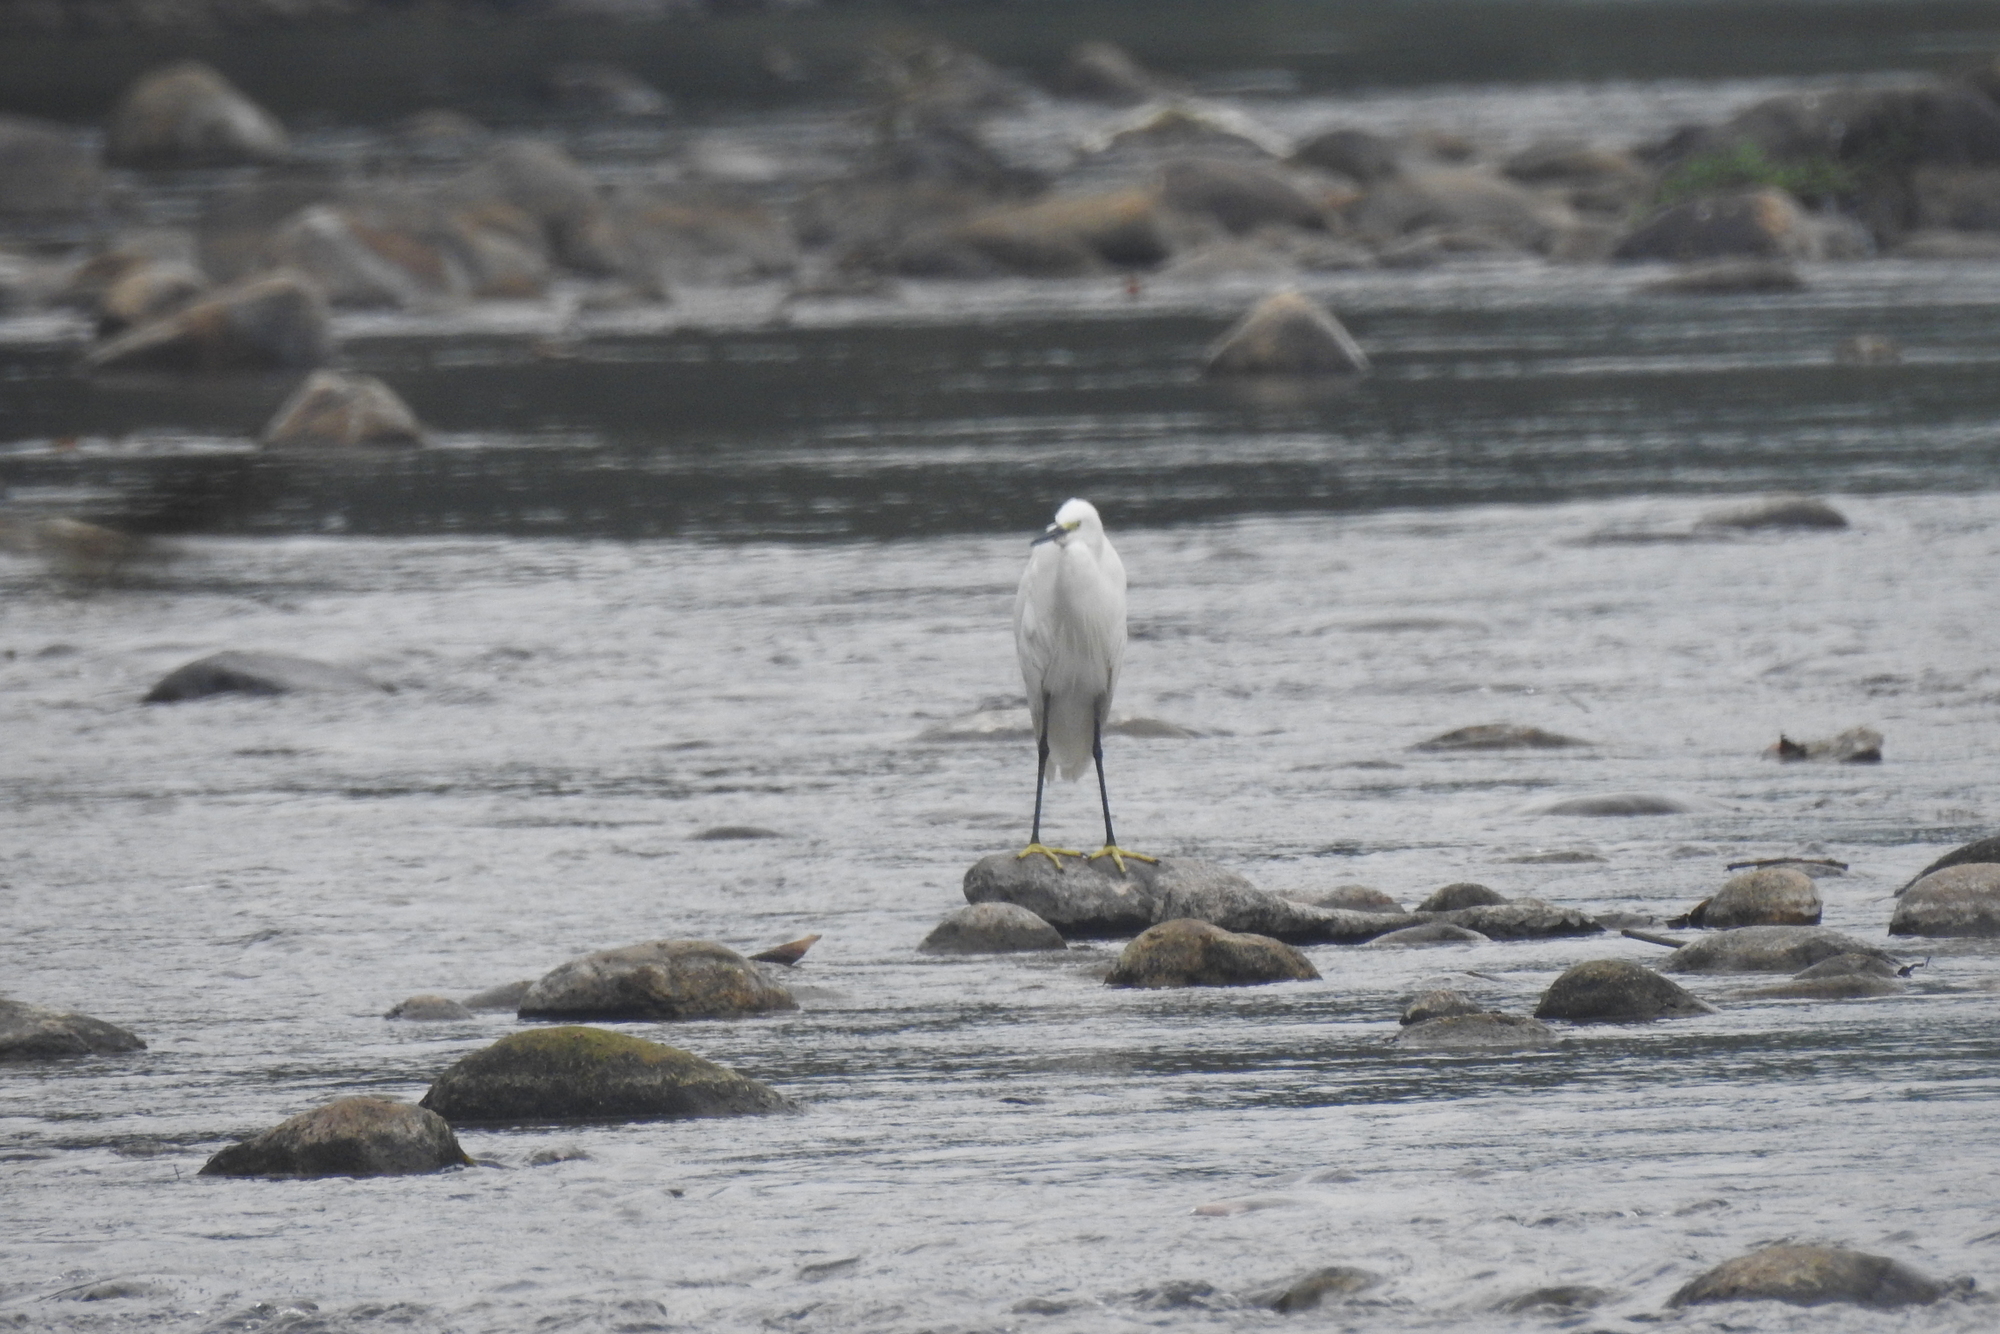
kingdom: Animalia
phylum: Chordata
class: Aves
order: Pelecaniformes
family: Ardeidae
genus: Egretta
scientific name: Egretta garzetta
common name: Little egret
